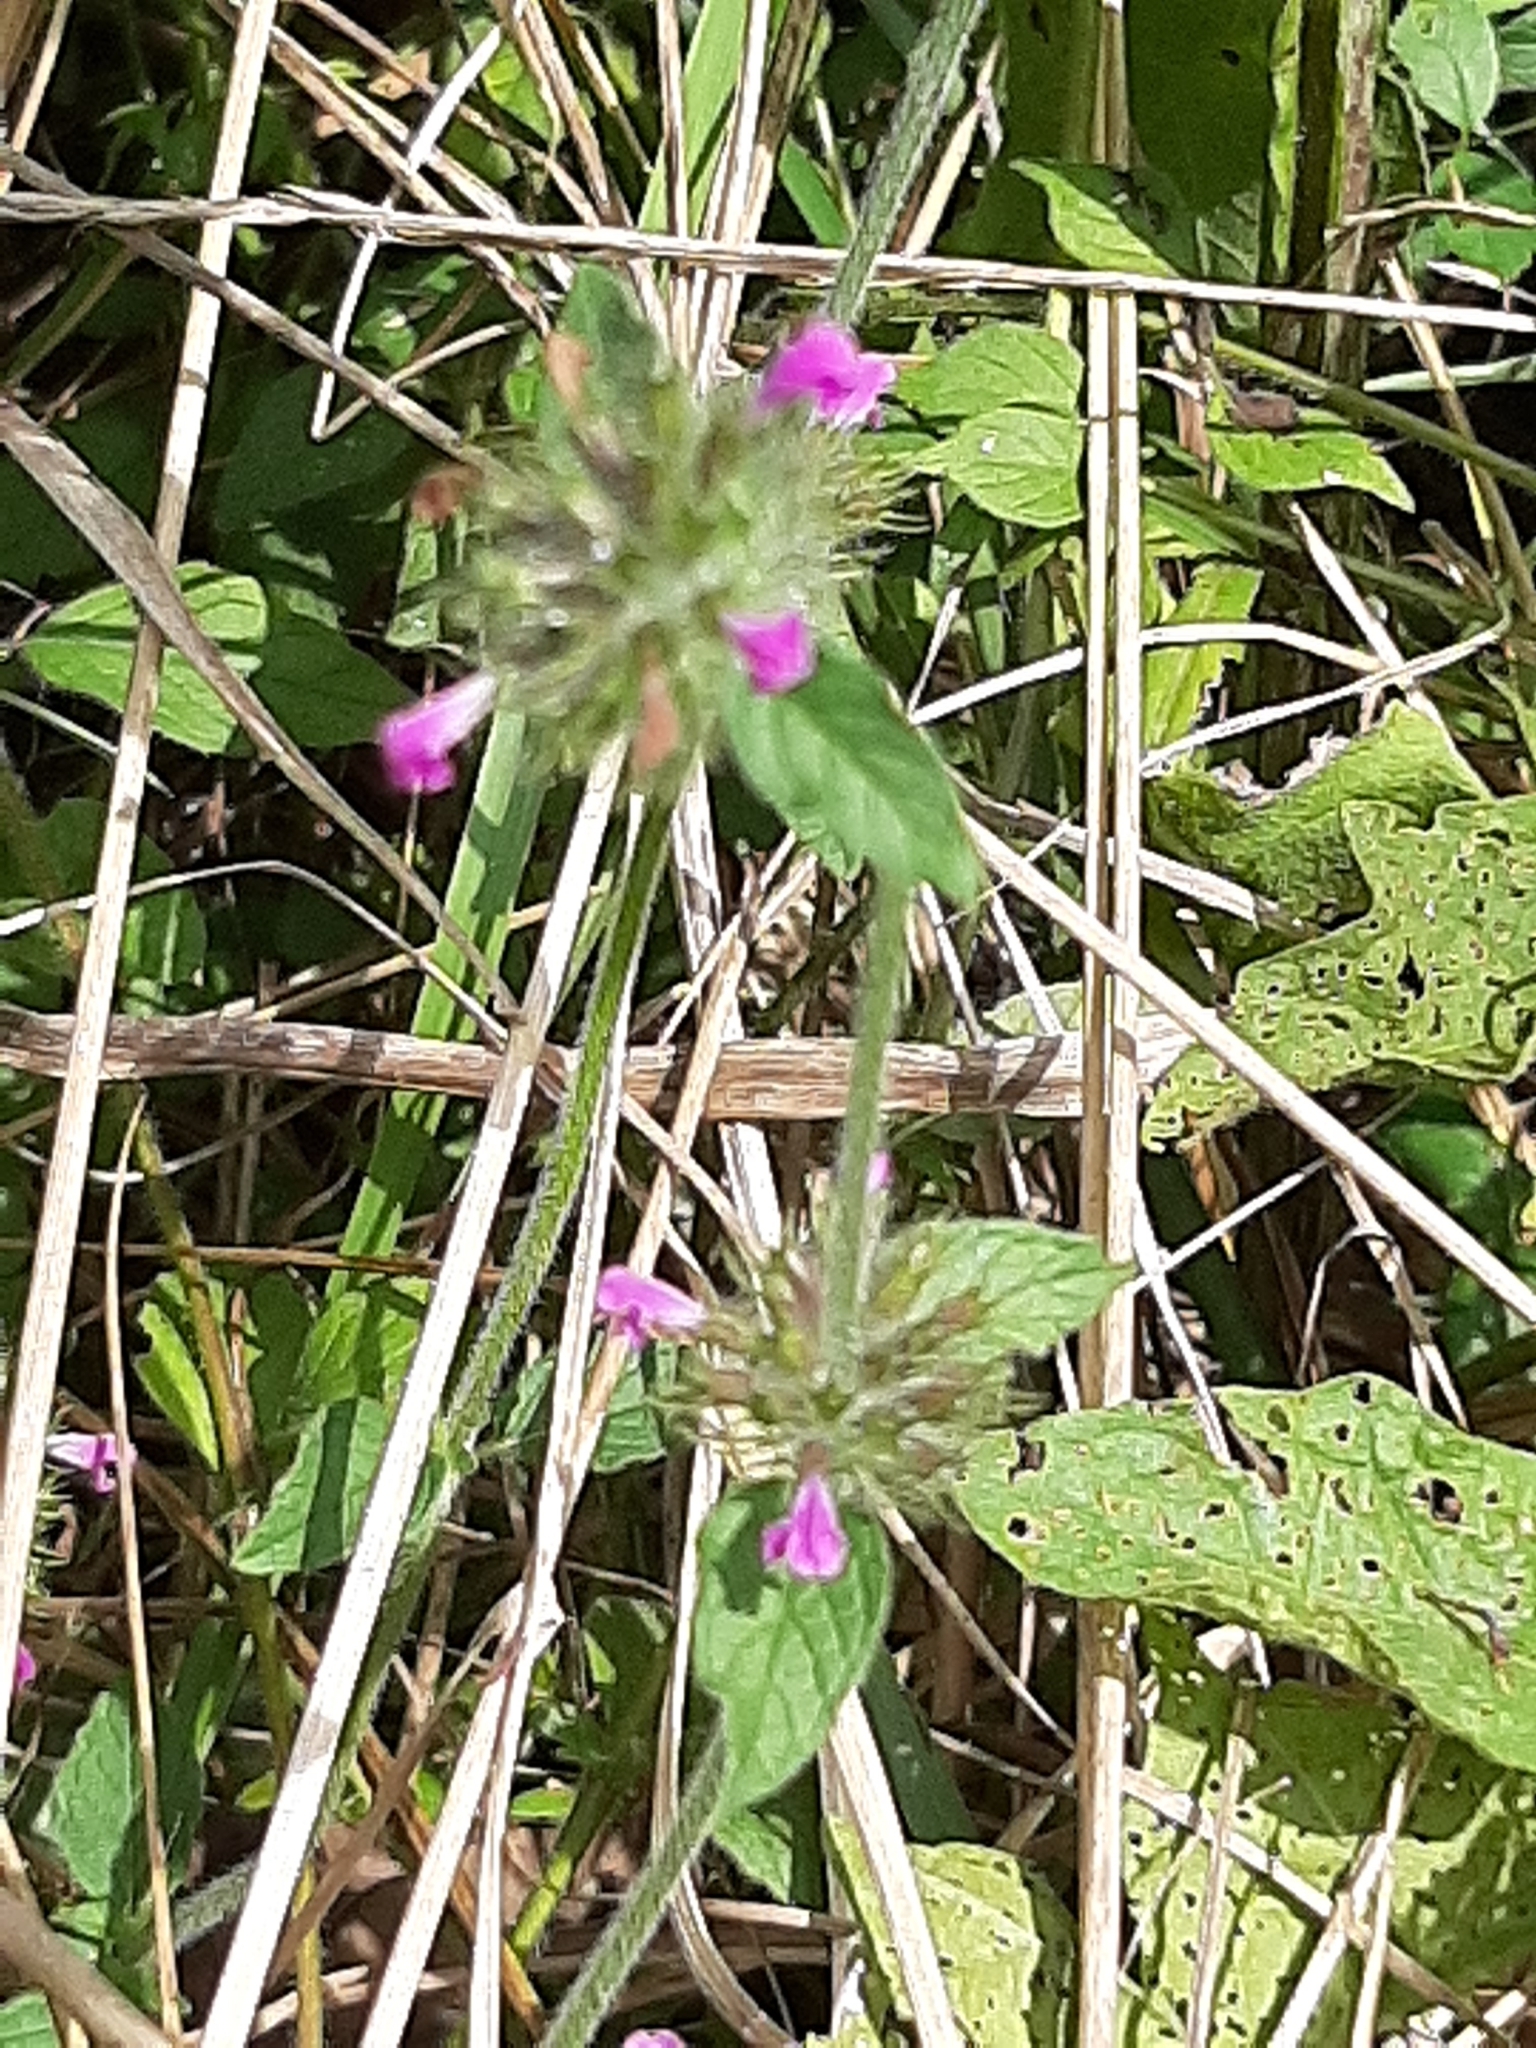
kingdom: Plantae
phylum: Tracheophyta
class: Magnoliopsida
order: Lamiales
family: Lamiaceae
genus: Clinopodium
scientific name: Clinopodium vulgare
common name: Wild basil
